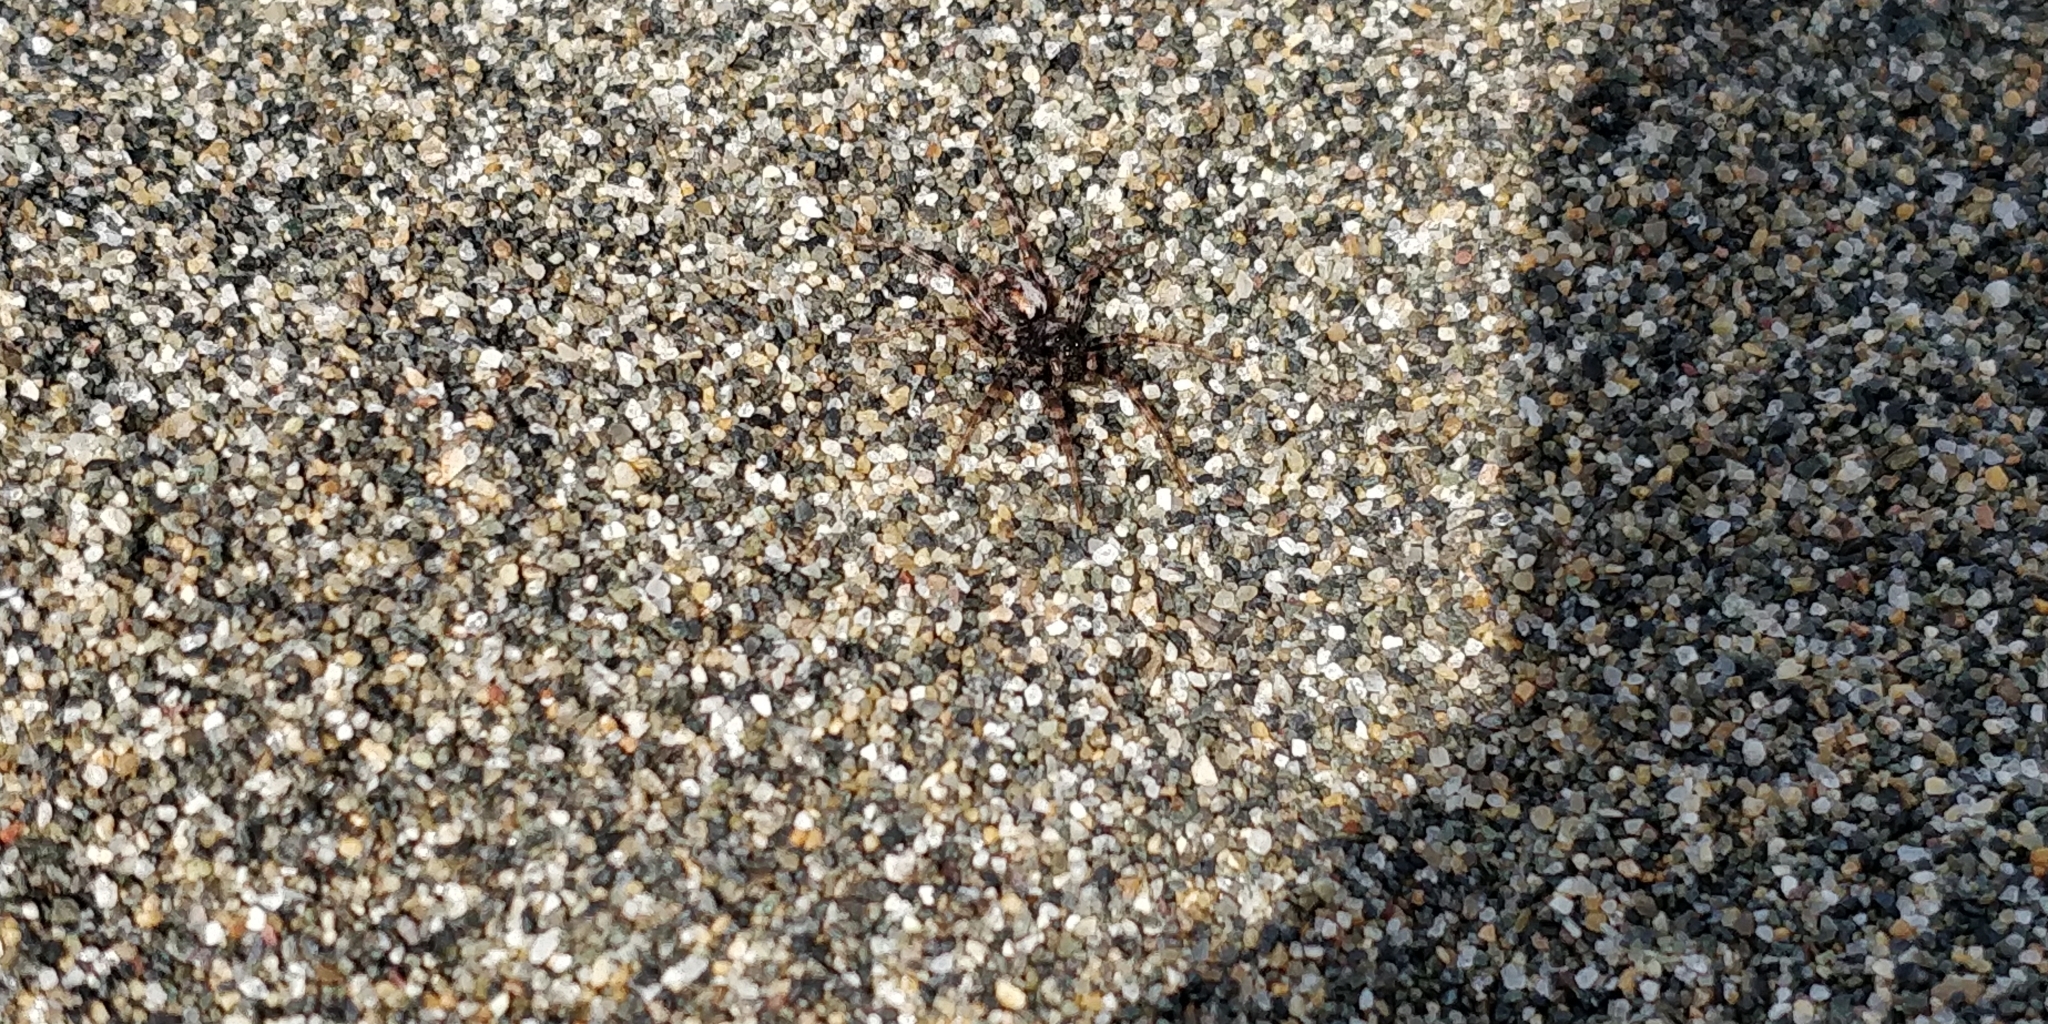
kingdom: Animalia
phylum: Arthropoda
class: Arachnida
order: Araneae
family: Lycosidae
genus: Arctosa
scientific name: Arctosa perita
